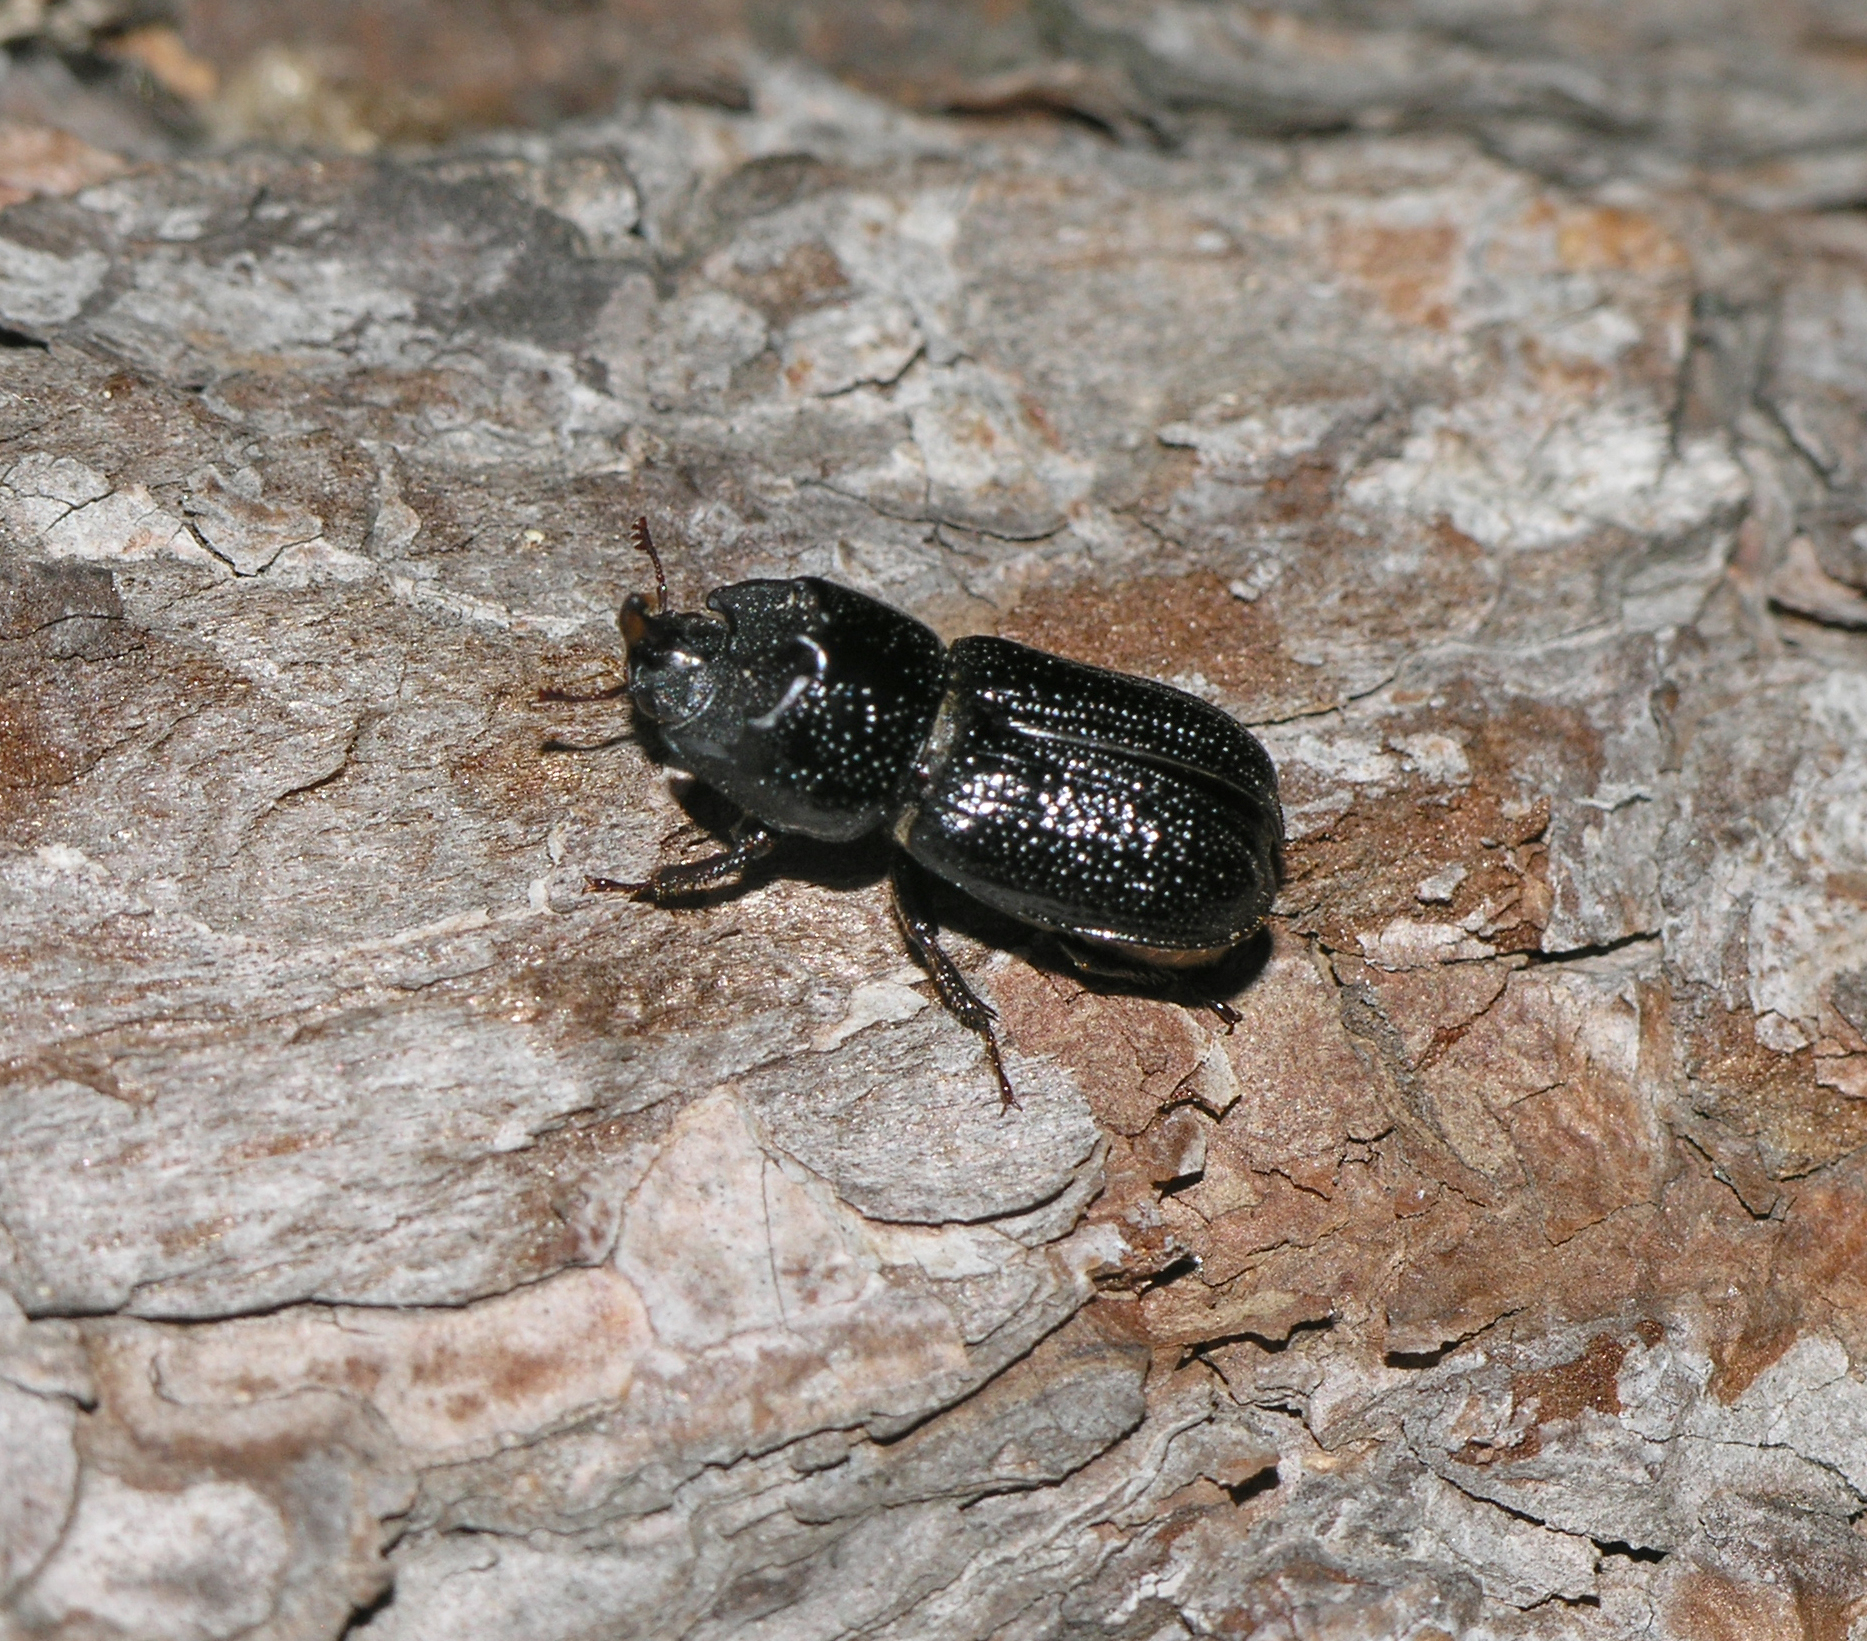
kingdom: Animalia
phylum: Arthropoda
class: Insecta
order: Coleoptera
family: Lucanidae
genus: Sinodendron
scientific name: Sinodendron cylindricum
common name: Rhinoceros beetle
